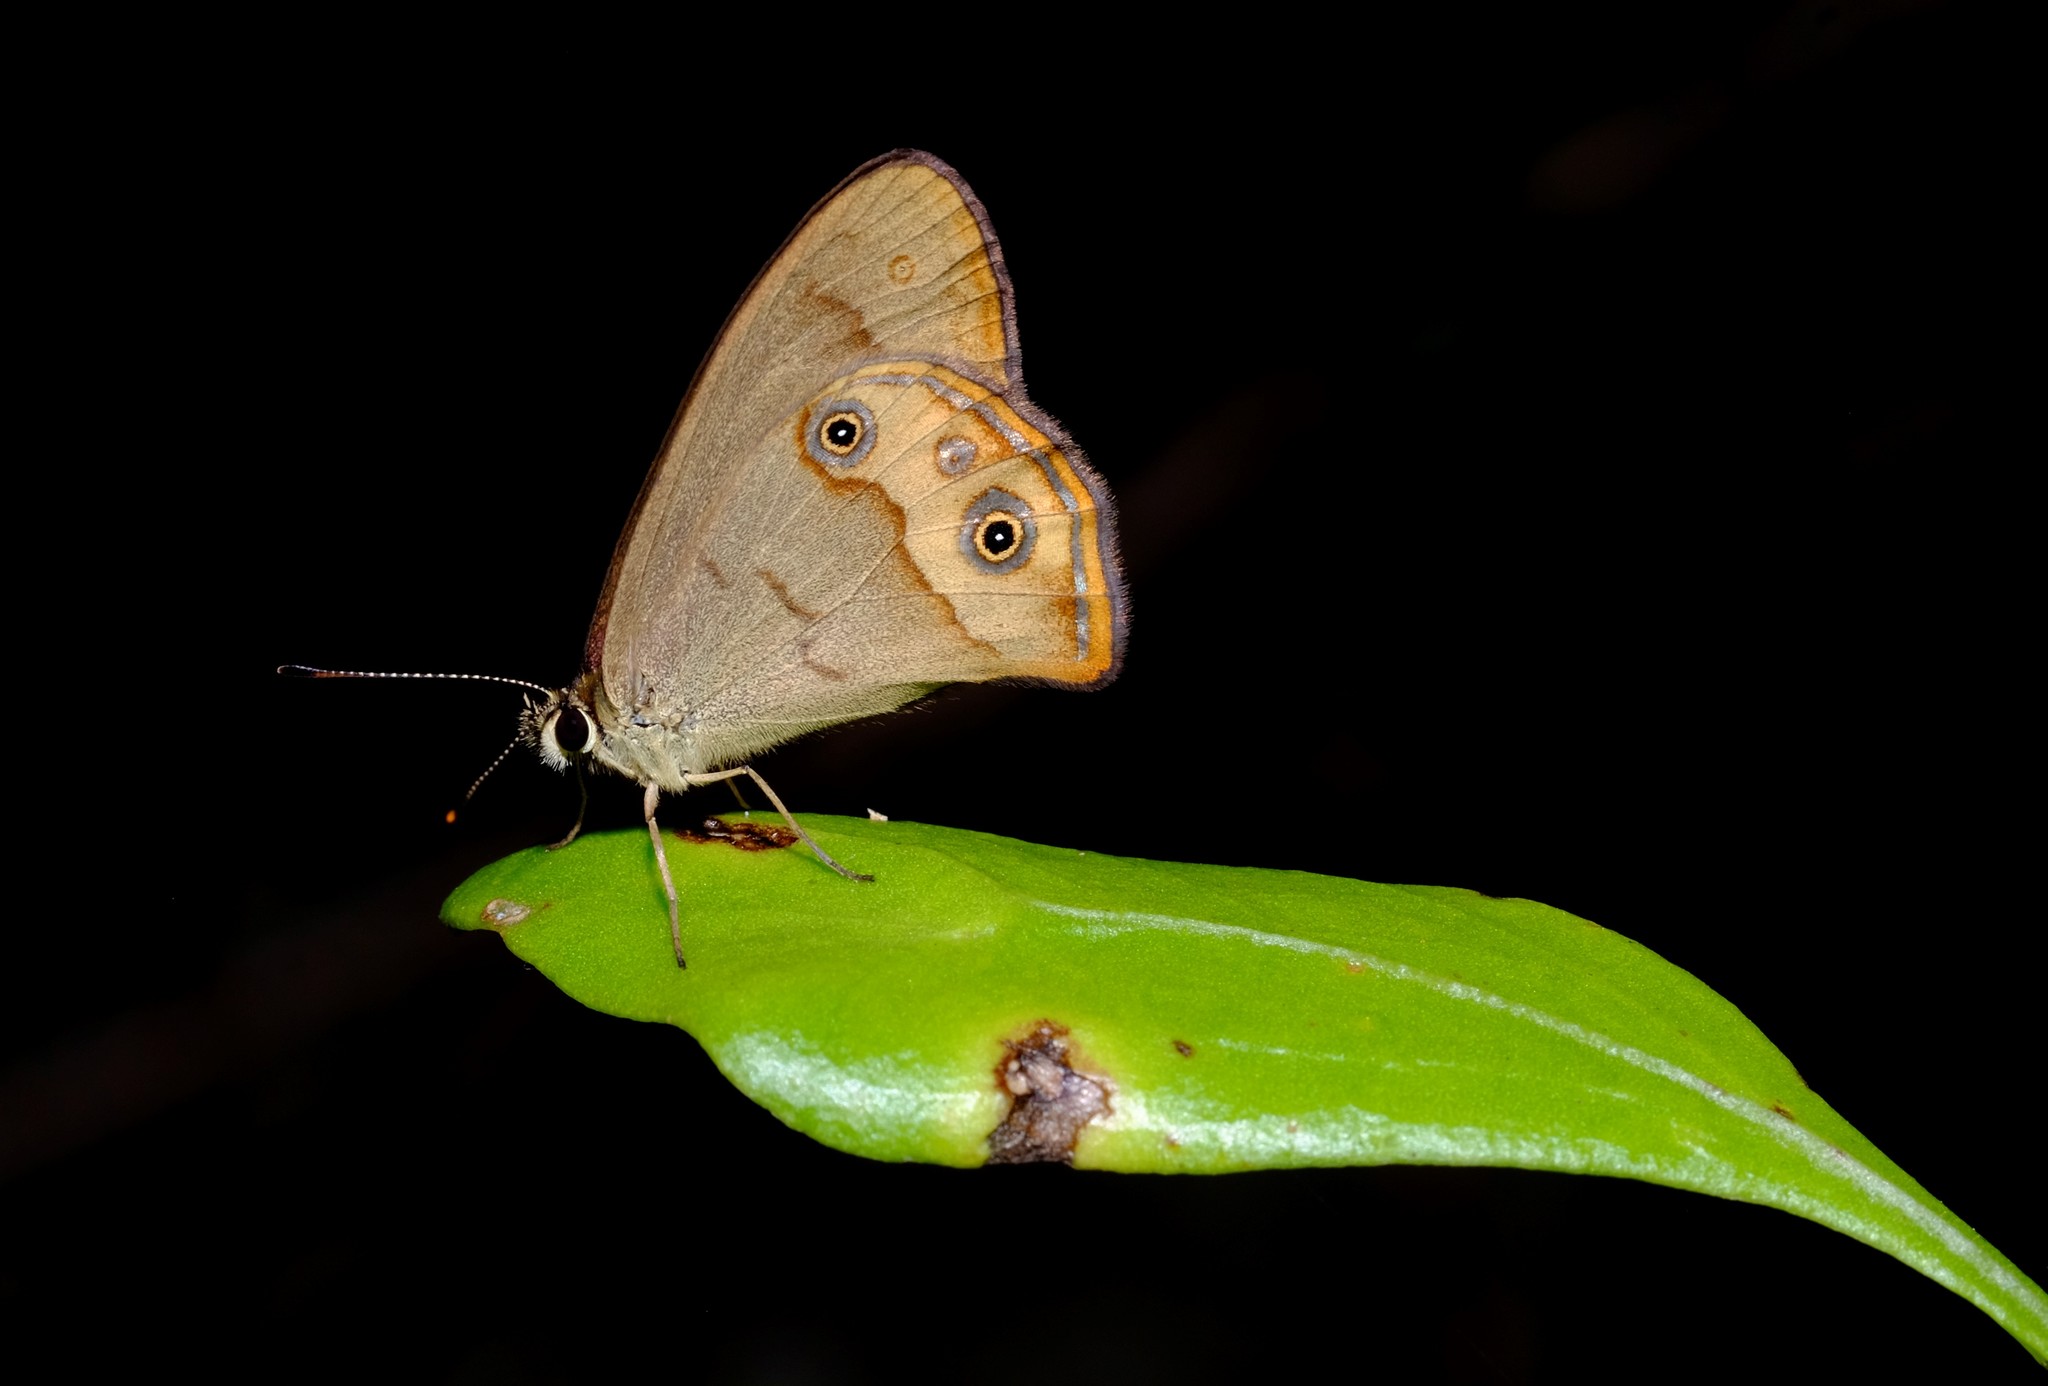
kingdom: Animalia
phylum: Arthropoda
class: Insecta
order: Lepidoptera
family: Nymphalidae
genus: Hypocysta
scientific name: Hypocysta metirius
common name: Brown ringlet
